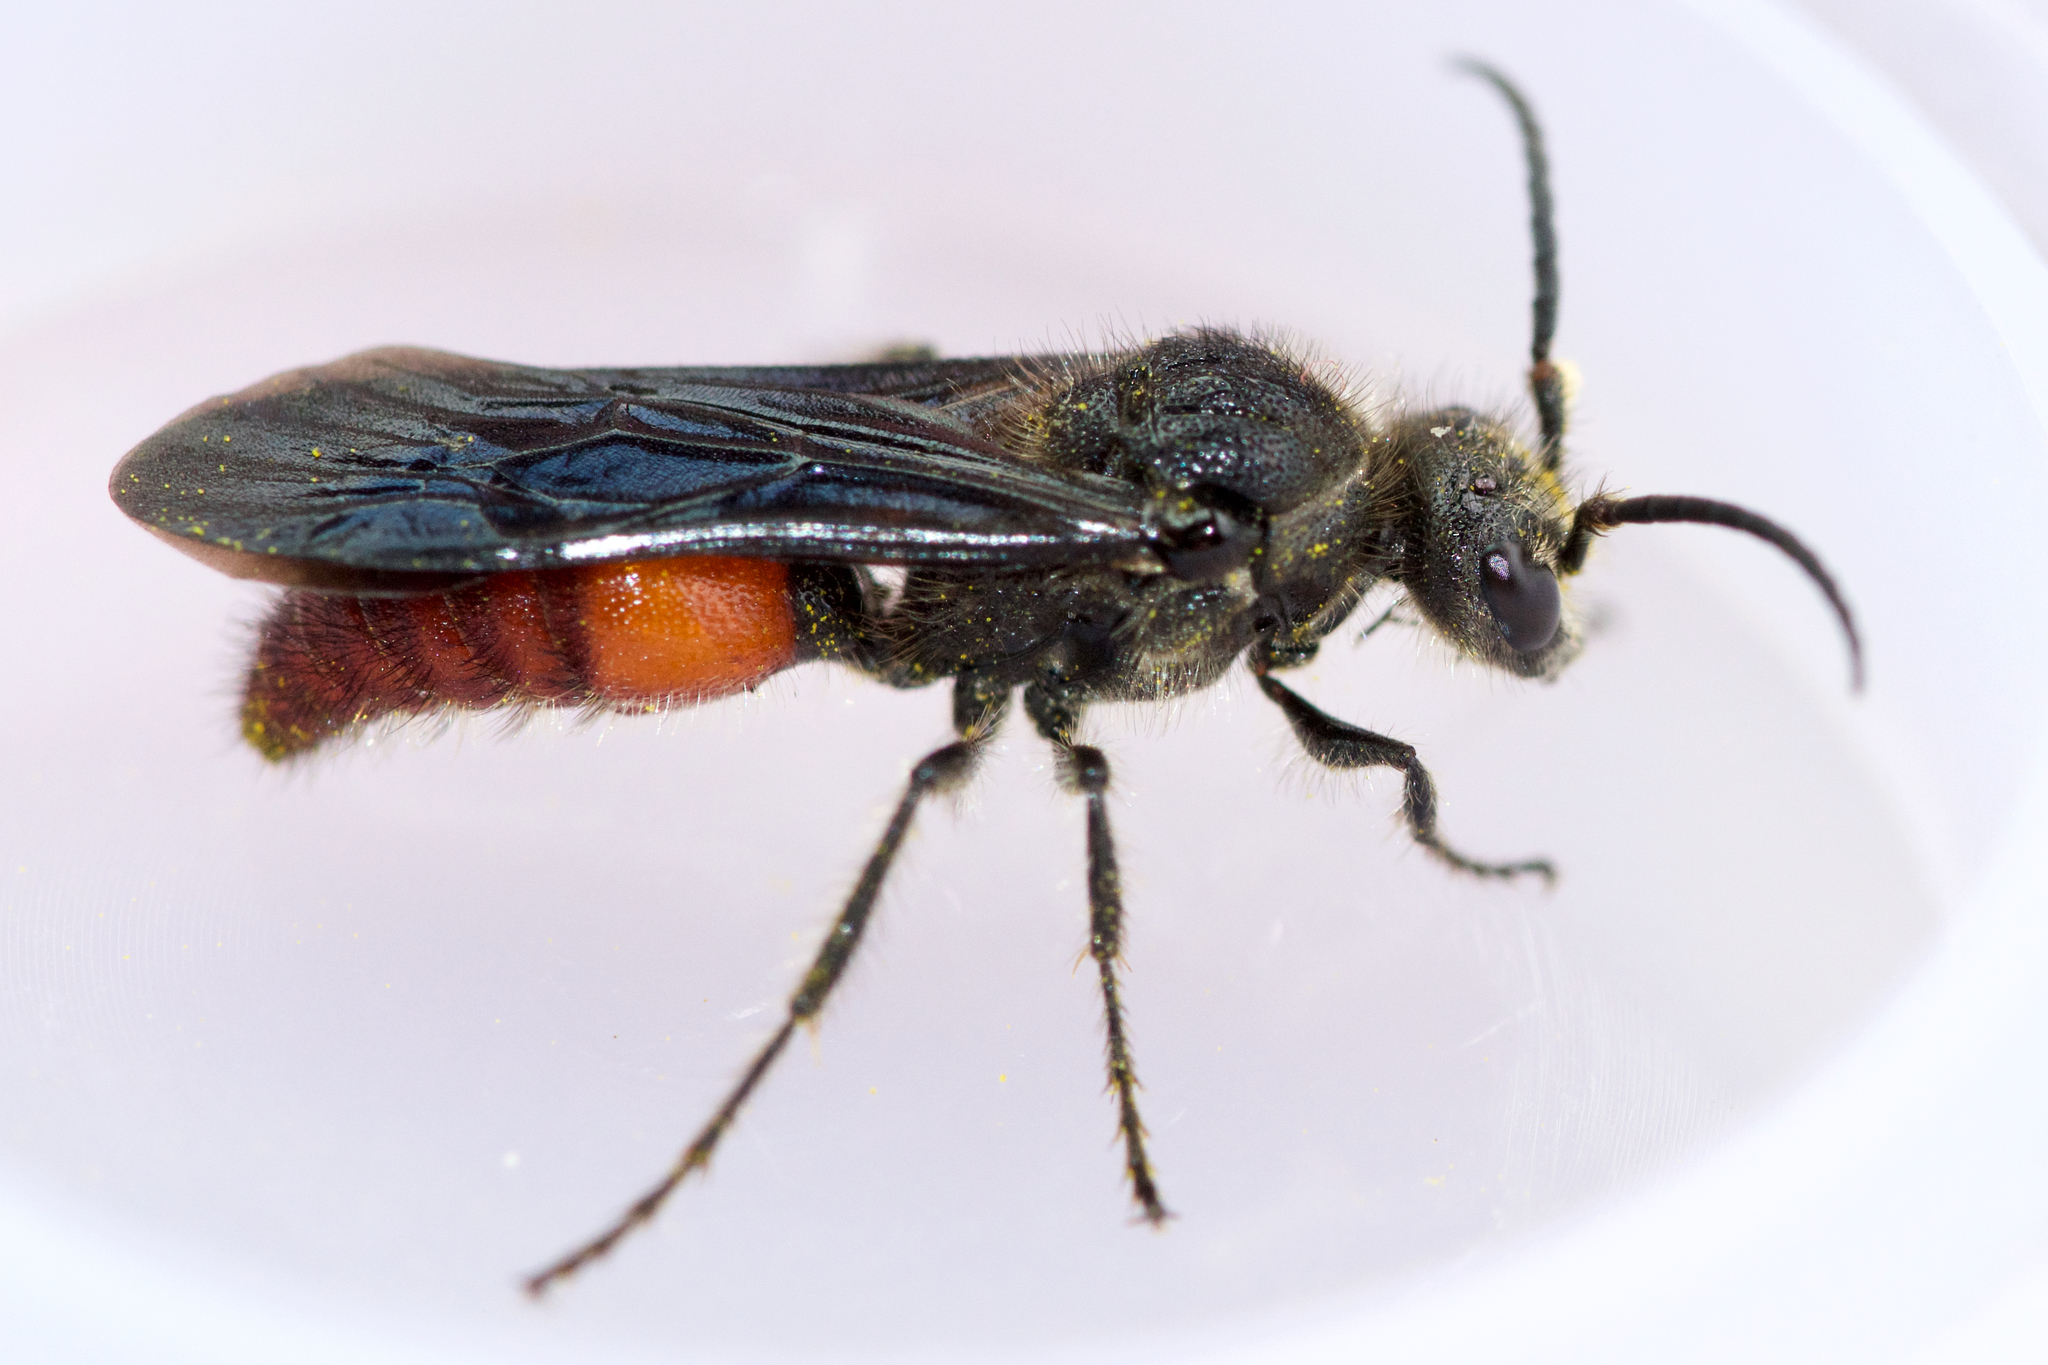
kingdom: Animalia
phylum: Arthropoda
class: Insecta
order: Hymenoptera
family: Mutillidae
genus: Timulla
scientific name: Timulla
